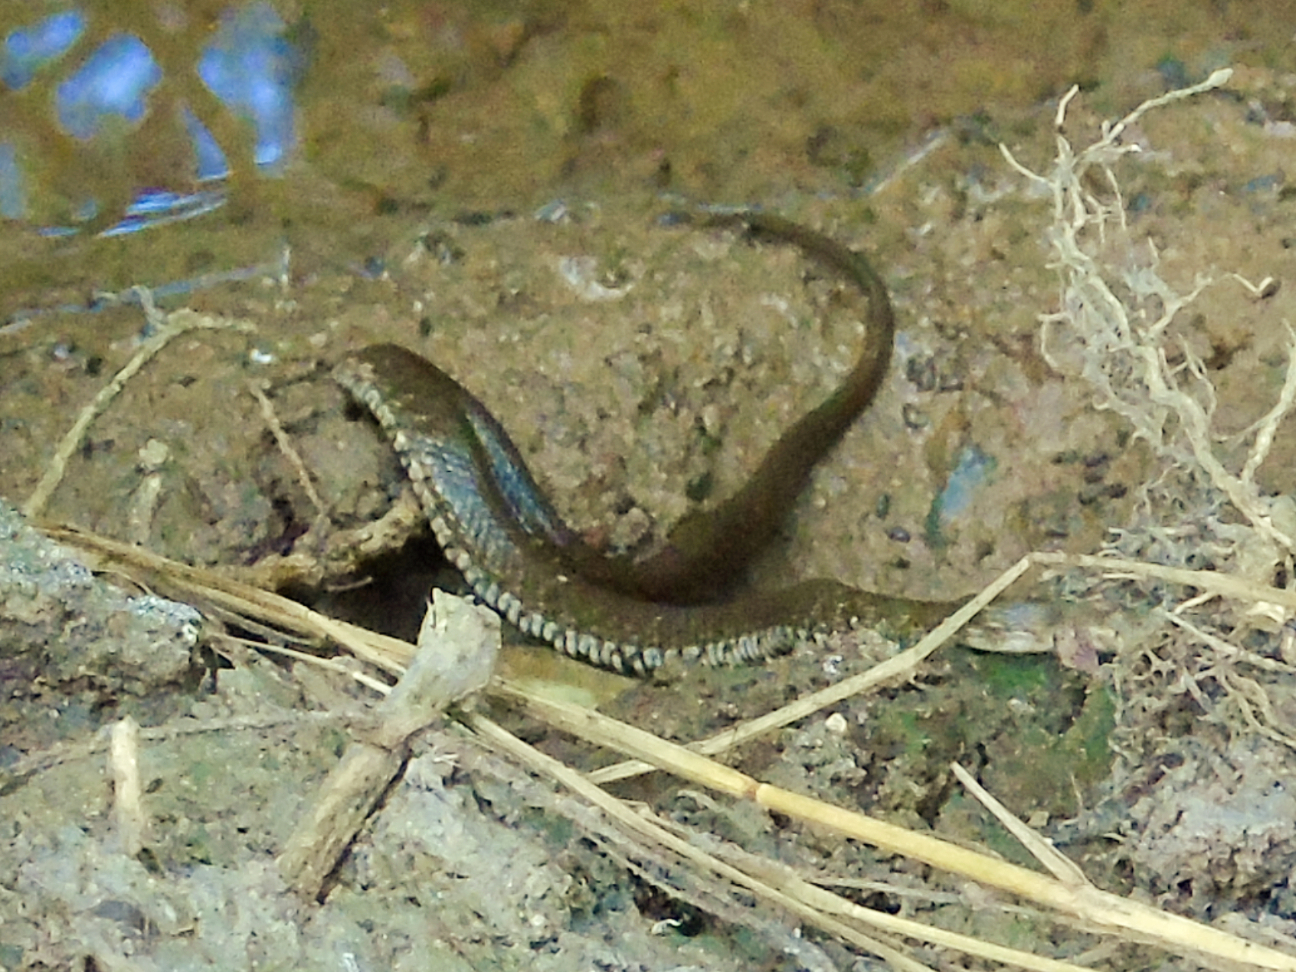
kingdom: Animalia
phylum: Chordata
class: Squamata
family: Colubridae
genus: Natrix
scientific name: Natrix tessellata
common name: Dice snake
